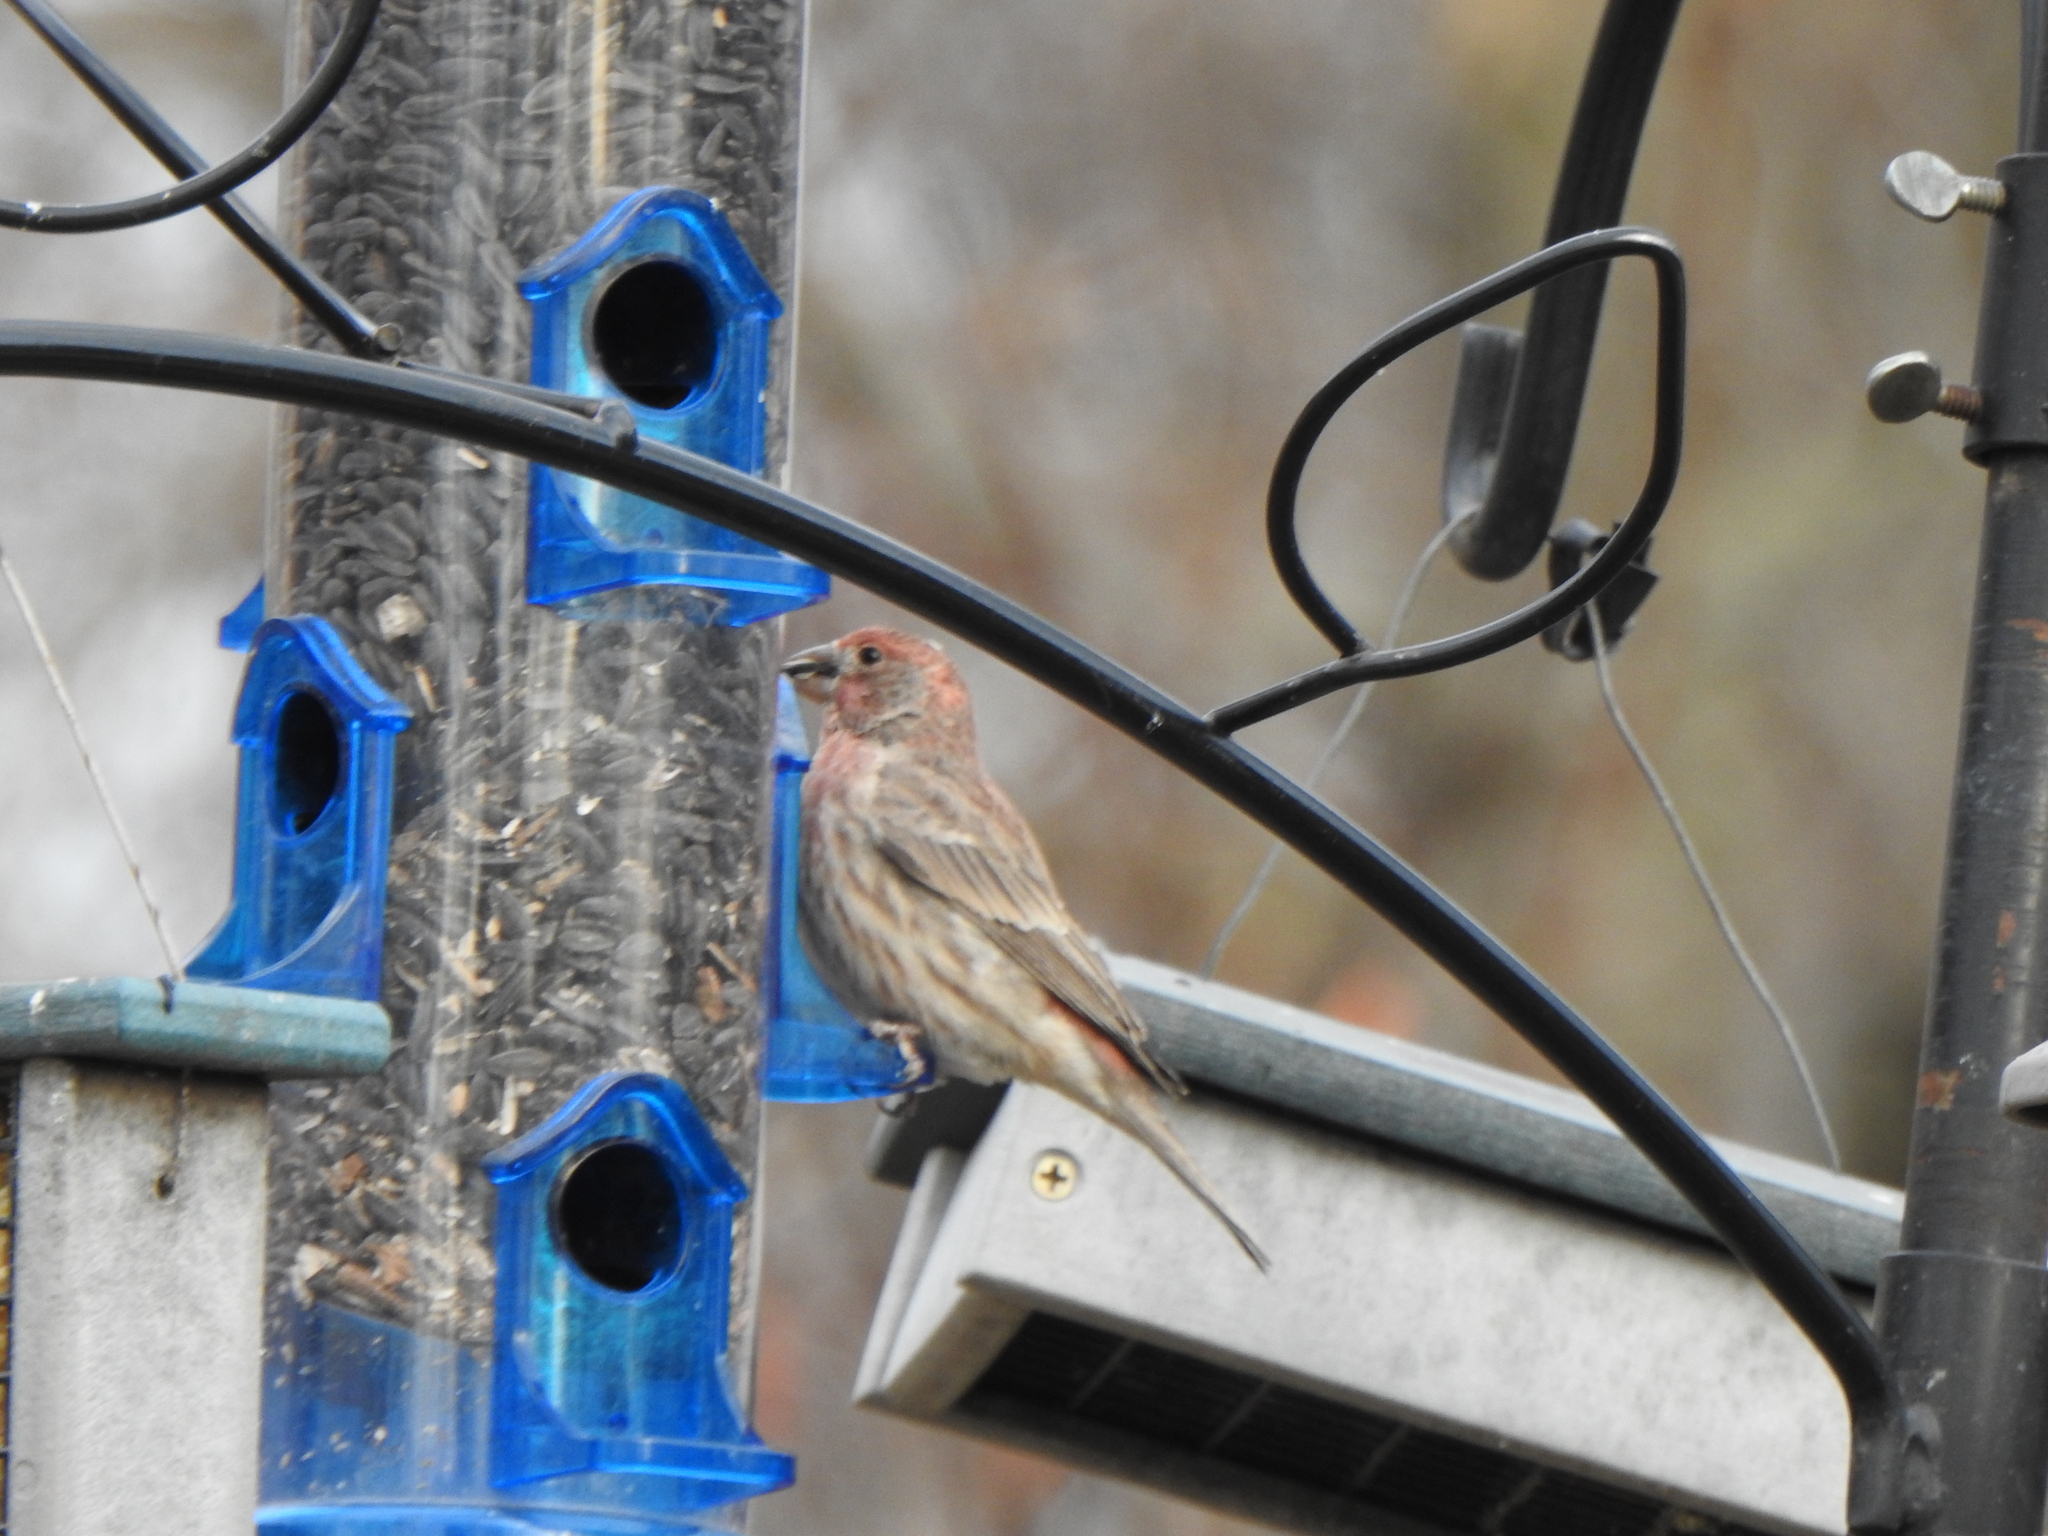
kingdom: Animalia
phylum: Chordata
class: Aves
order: Passeriformes
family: Fringillidae
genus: Haemorhous
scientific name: Haemorhous mexicanus
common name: House finch
